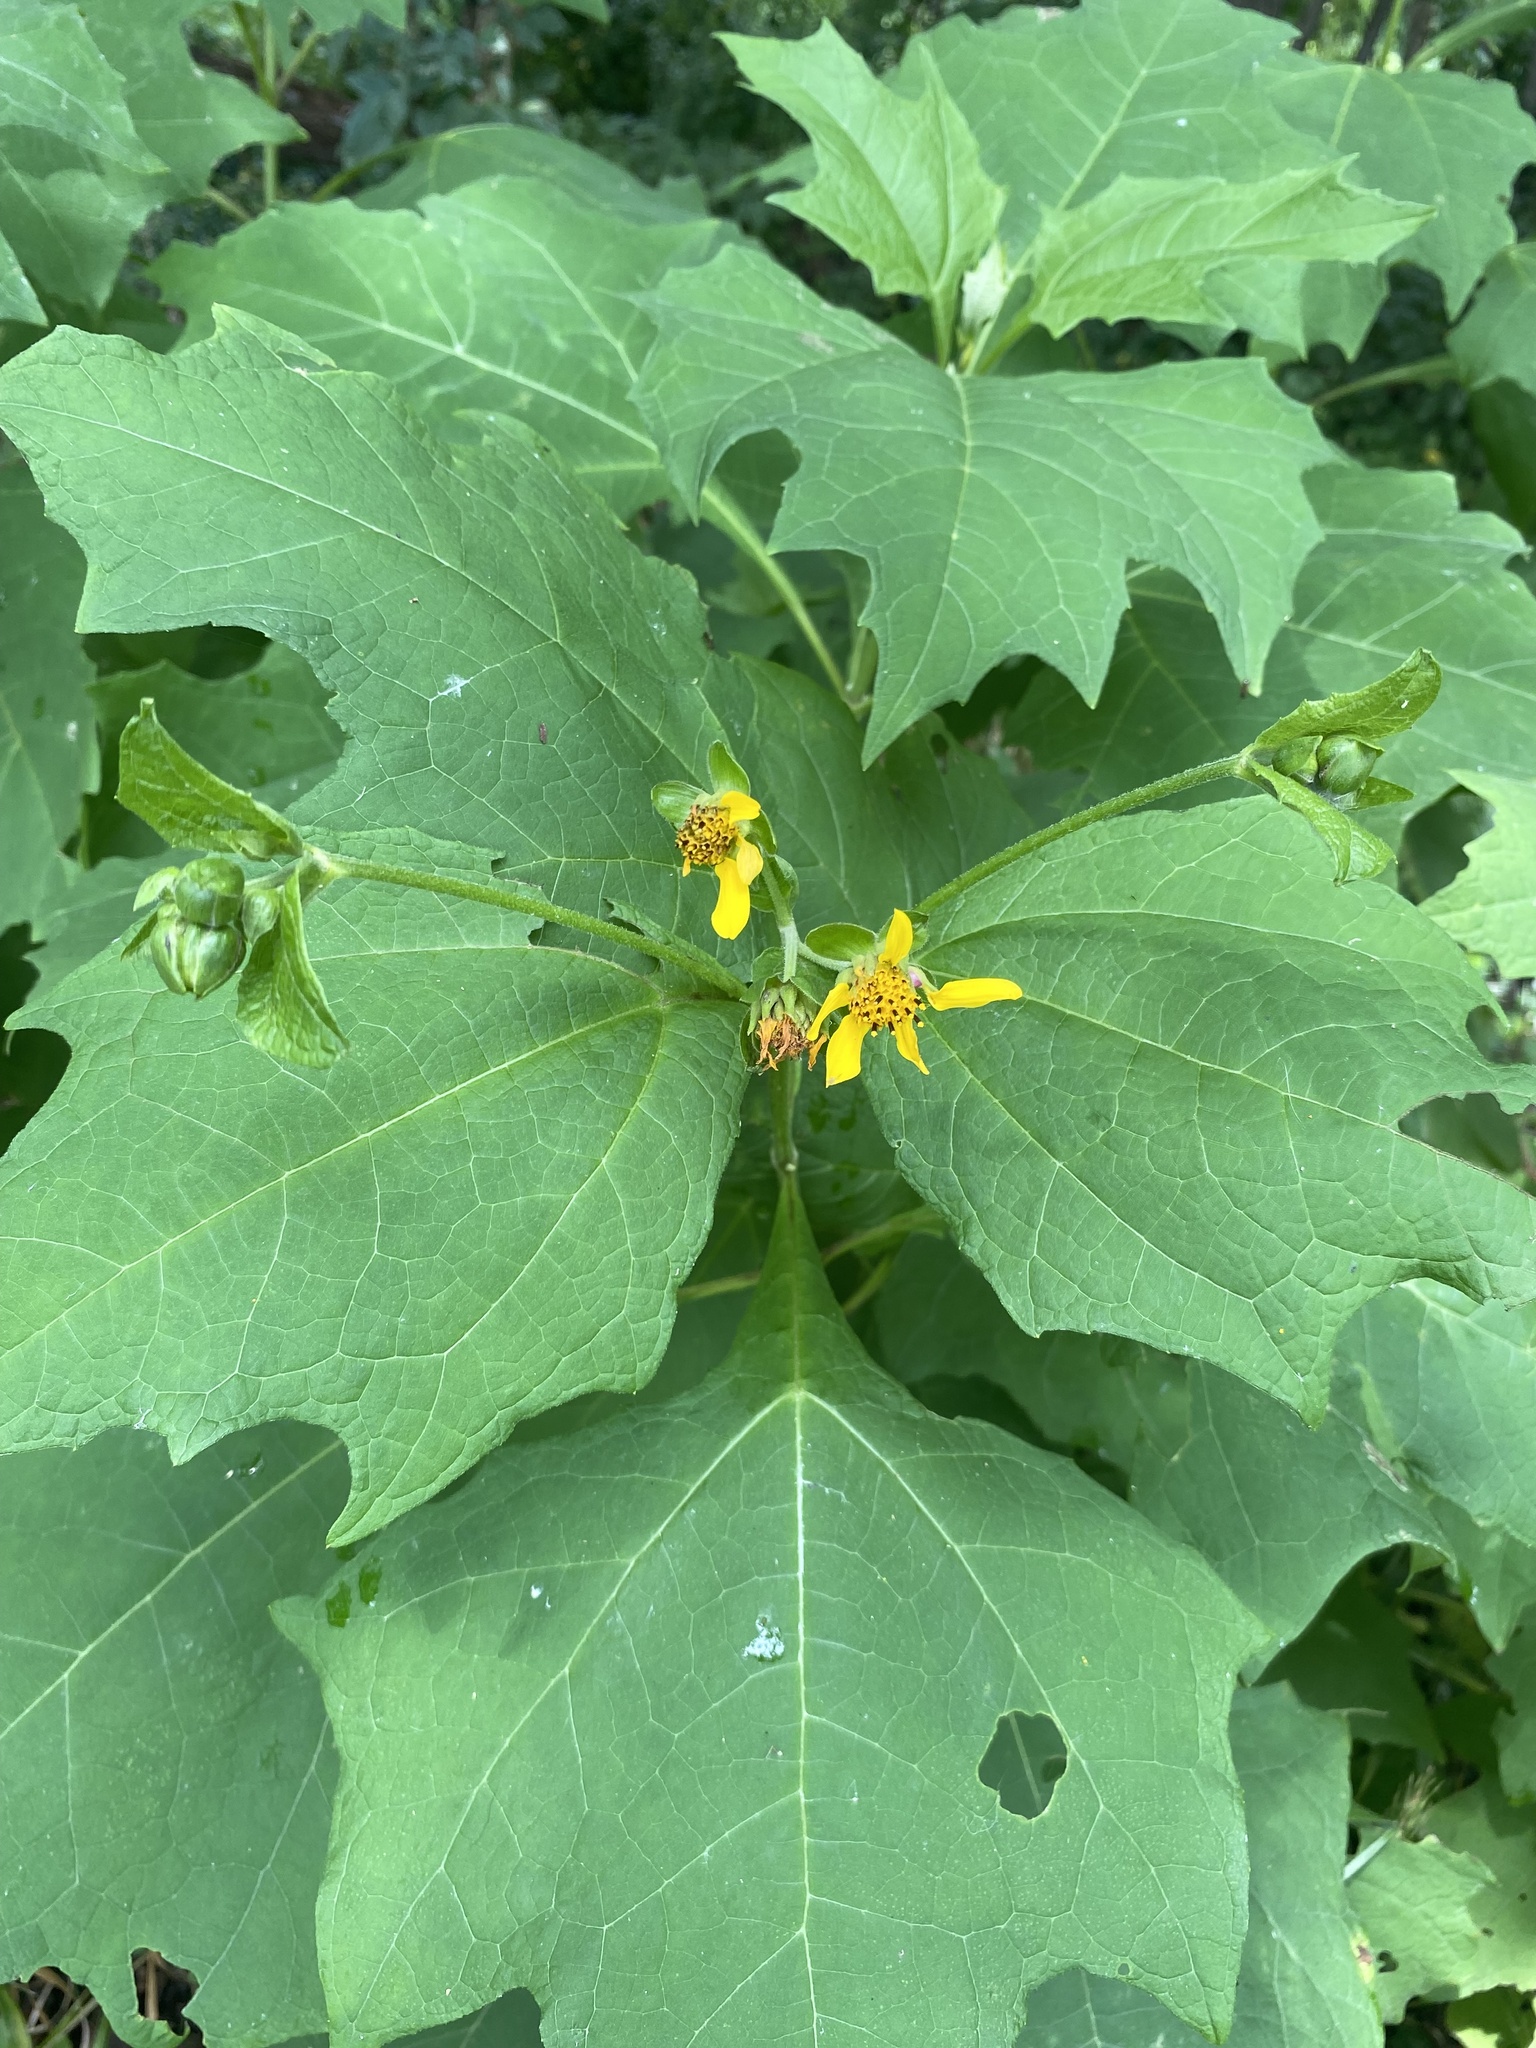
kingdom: Plantae
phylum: Tracheophyta
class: Magnoliopsida
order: Asterales
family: Asteraceae
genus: Smallanthus
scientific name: Smallanthus uvedalia
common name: Bear's-foot
